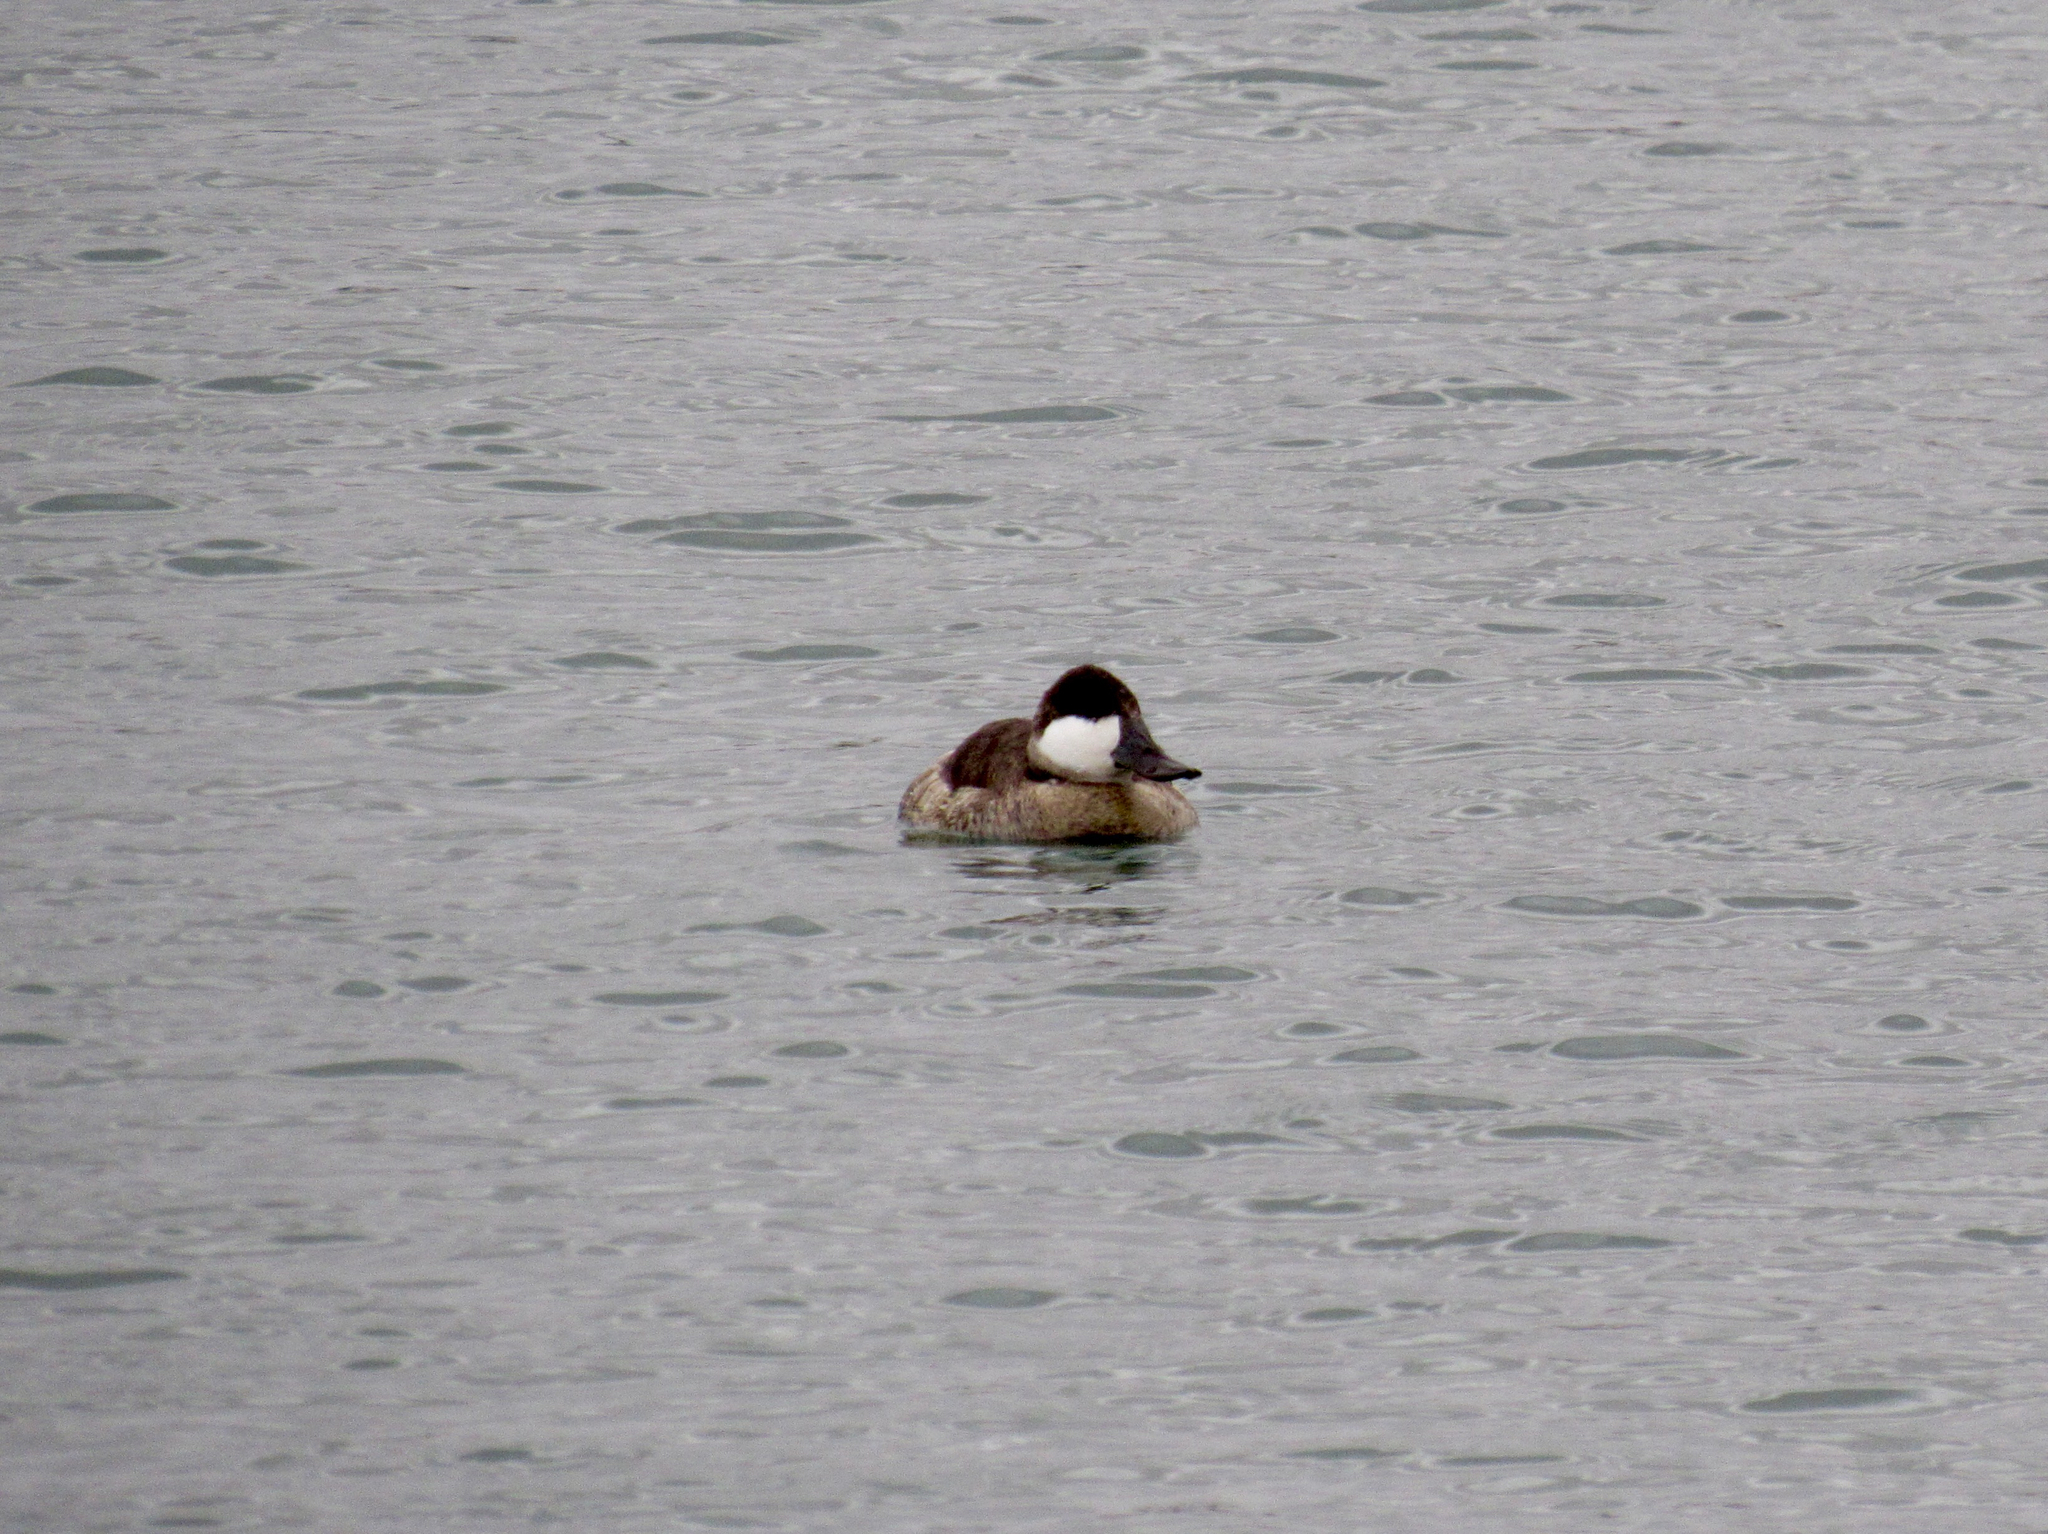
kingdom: Animalia
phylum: Chordata
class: Aves
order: Anseriformes
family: Anatidae
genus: Oxyura
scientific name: Oxyura jamaicensis
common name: Ruddy duck
